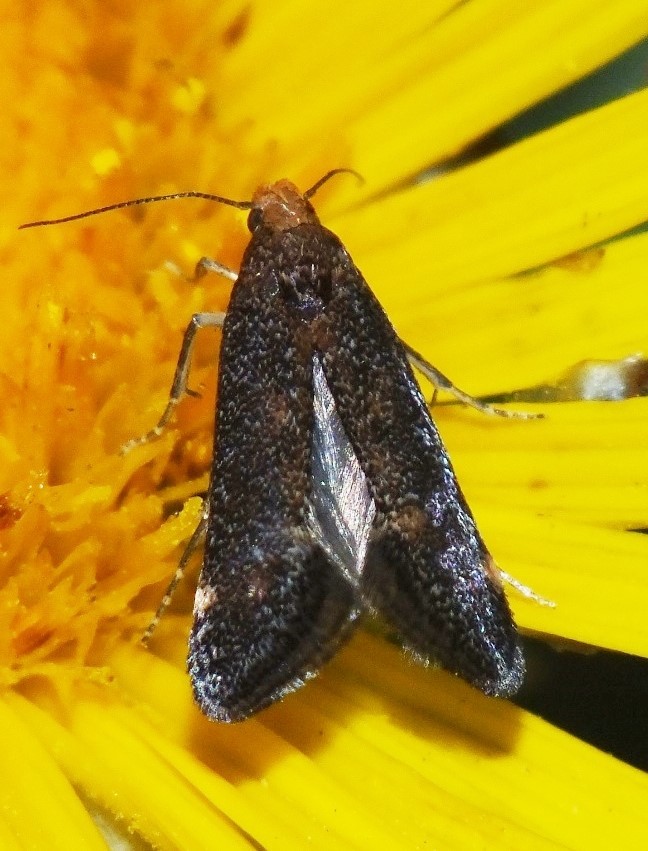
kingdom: Animalia
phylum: Arthropoda
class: Insecta
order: Lepidoptera
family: Gelechiidae
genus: Apodia
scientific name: Apodia bifractella
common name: Dark fleabane neb
